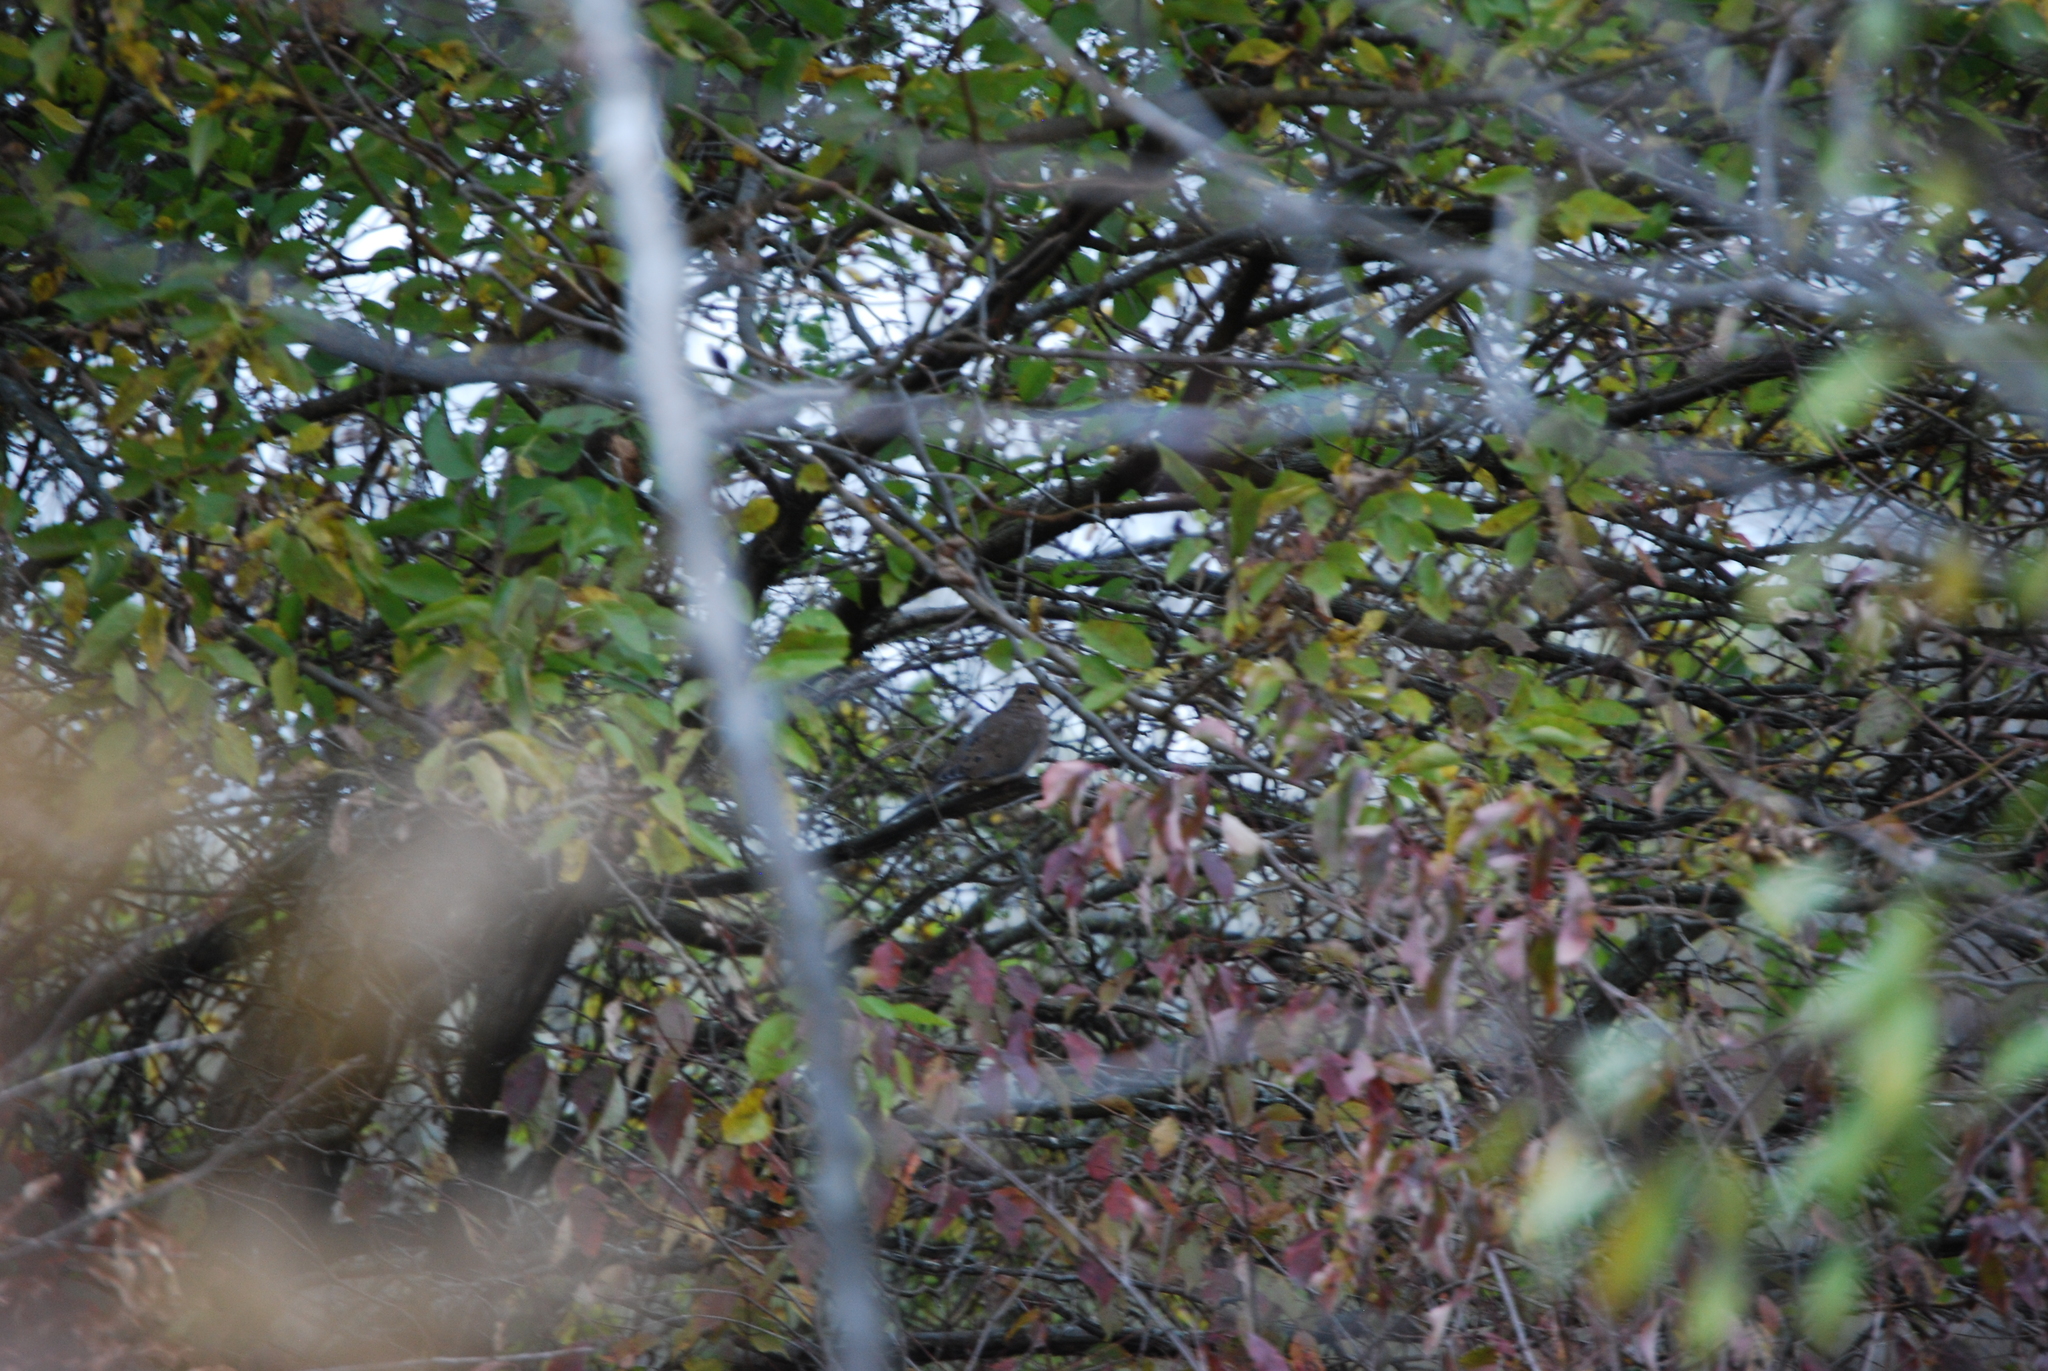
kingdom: Animalia
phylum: Chordata
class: Aves
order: Columbiformes
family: Columbidae
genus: Zenaida
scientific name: Zenaida macroura
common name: Mourning dove
